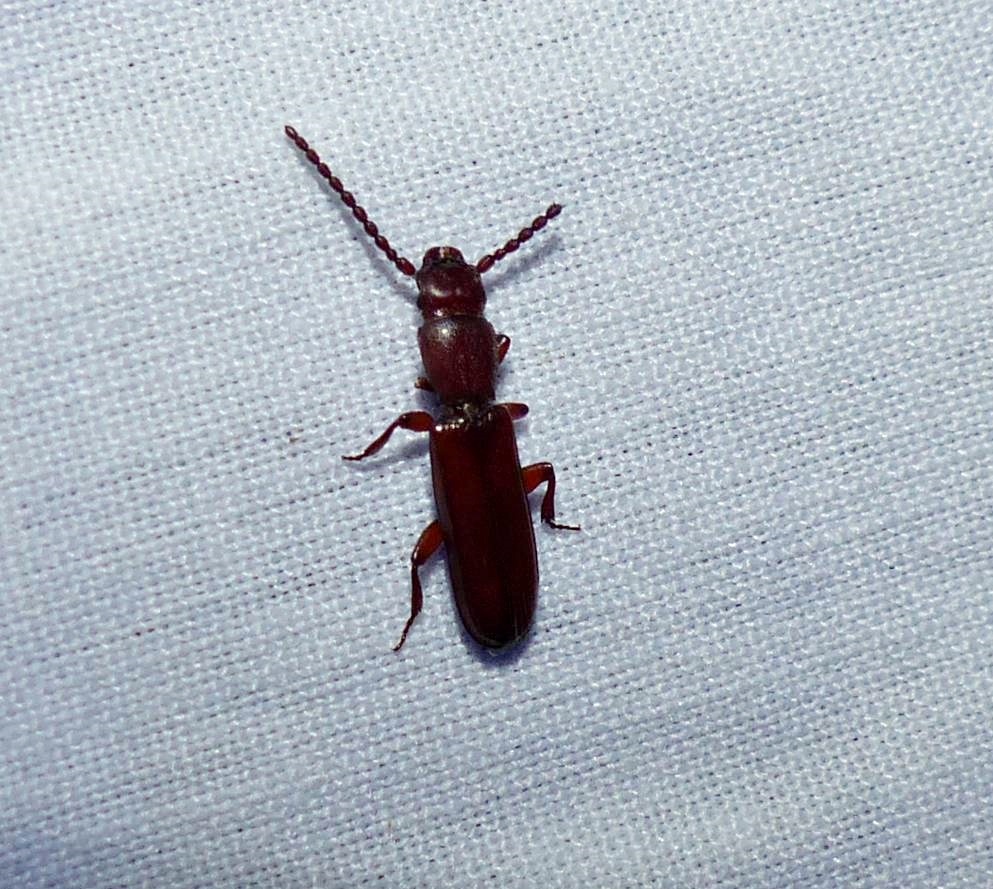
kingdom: Animalia
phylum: Arthropoda
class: Insecta
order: Coleoptera
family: Passandridae
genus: Catogenus
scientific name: Catogenus rufus
